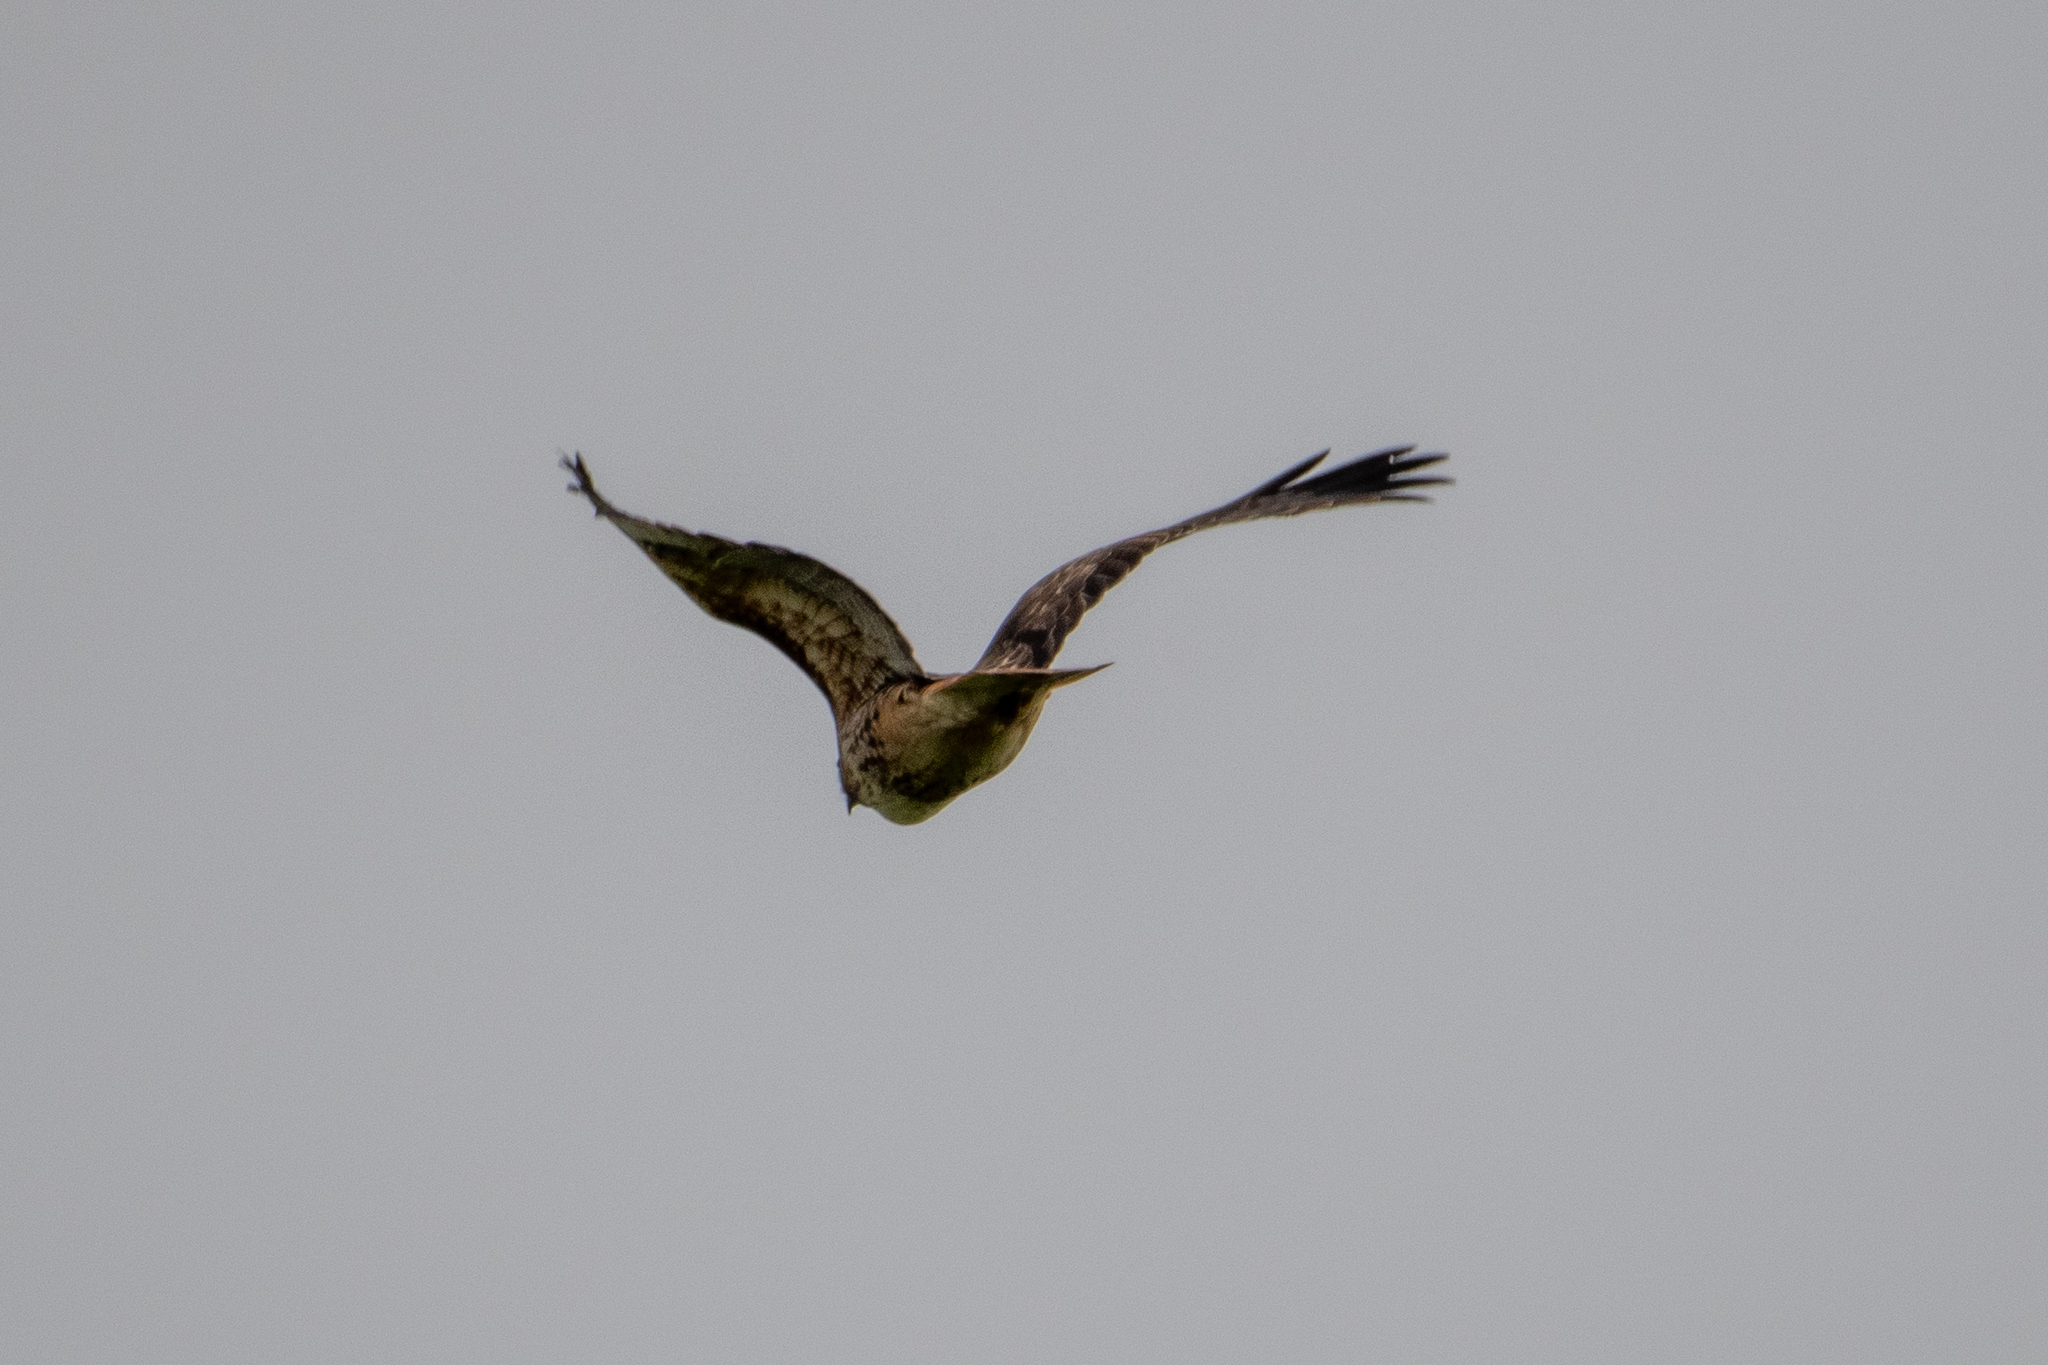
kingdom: Animalia
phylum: Chordata
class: Aves
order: Accipitriformes
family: Accipitridae
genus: Buteo
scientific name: Buteo jamaicensis
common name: Red-tailed hawk
